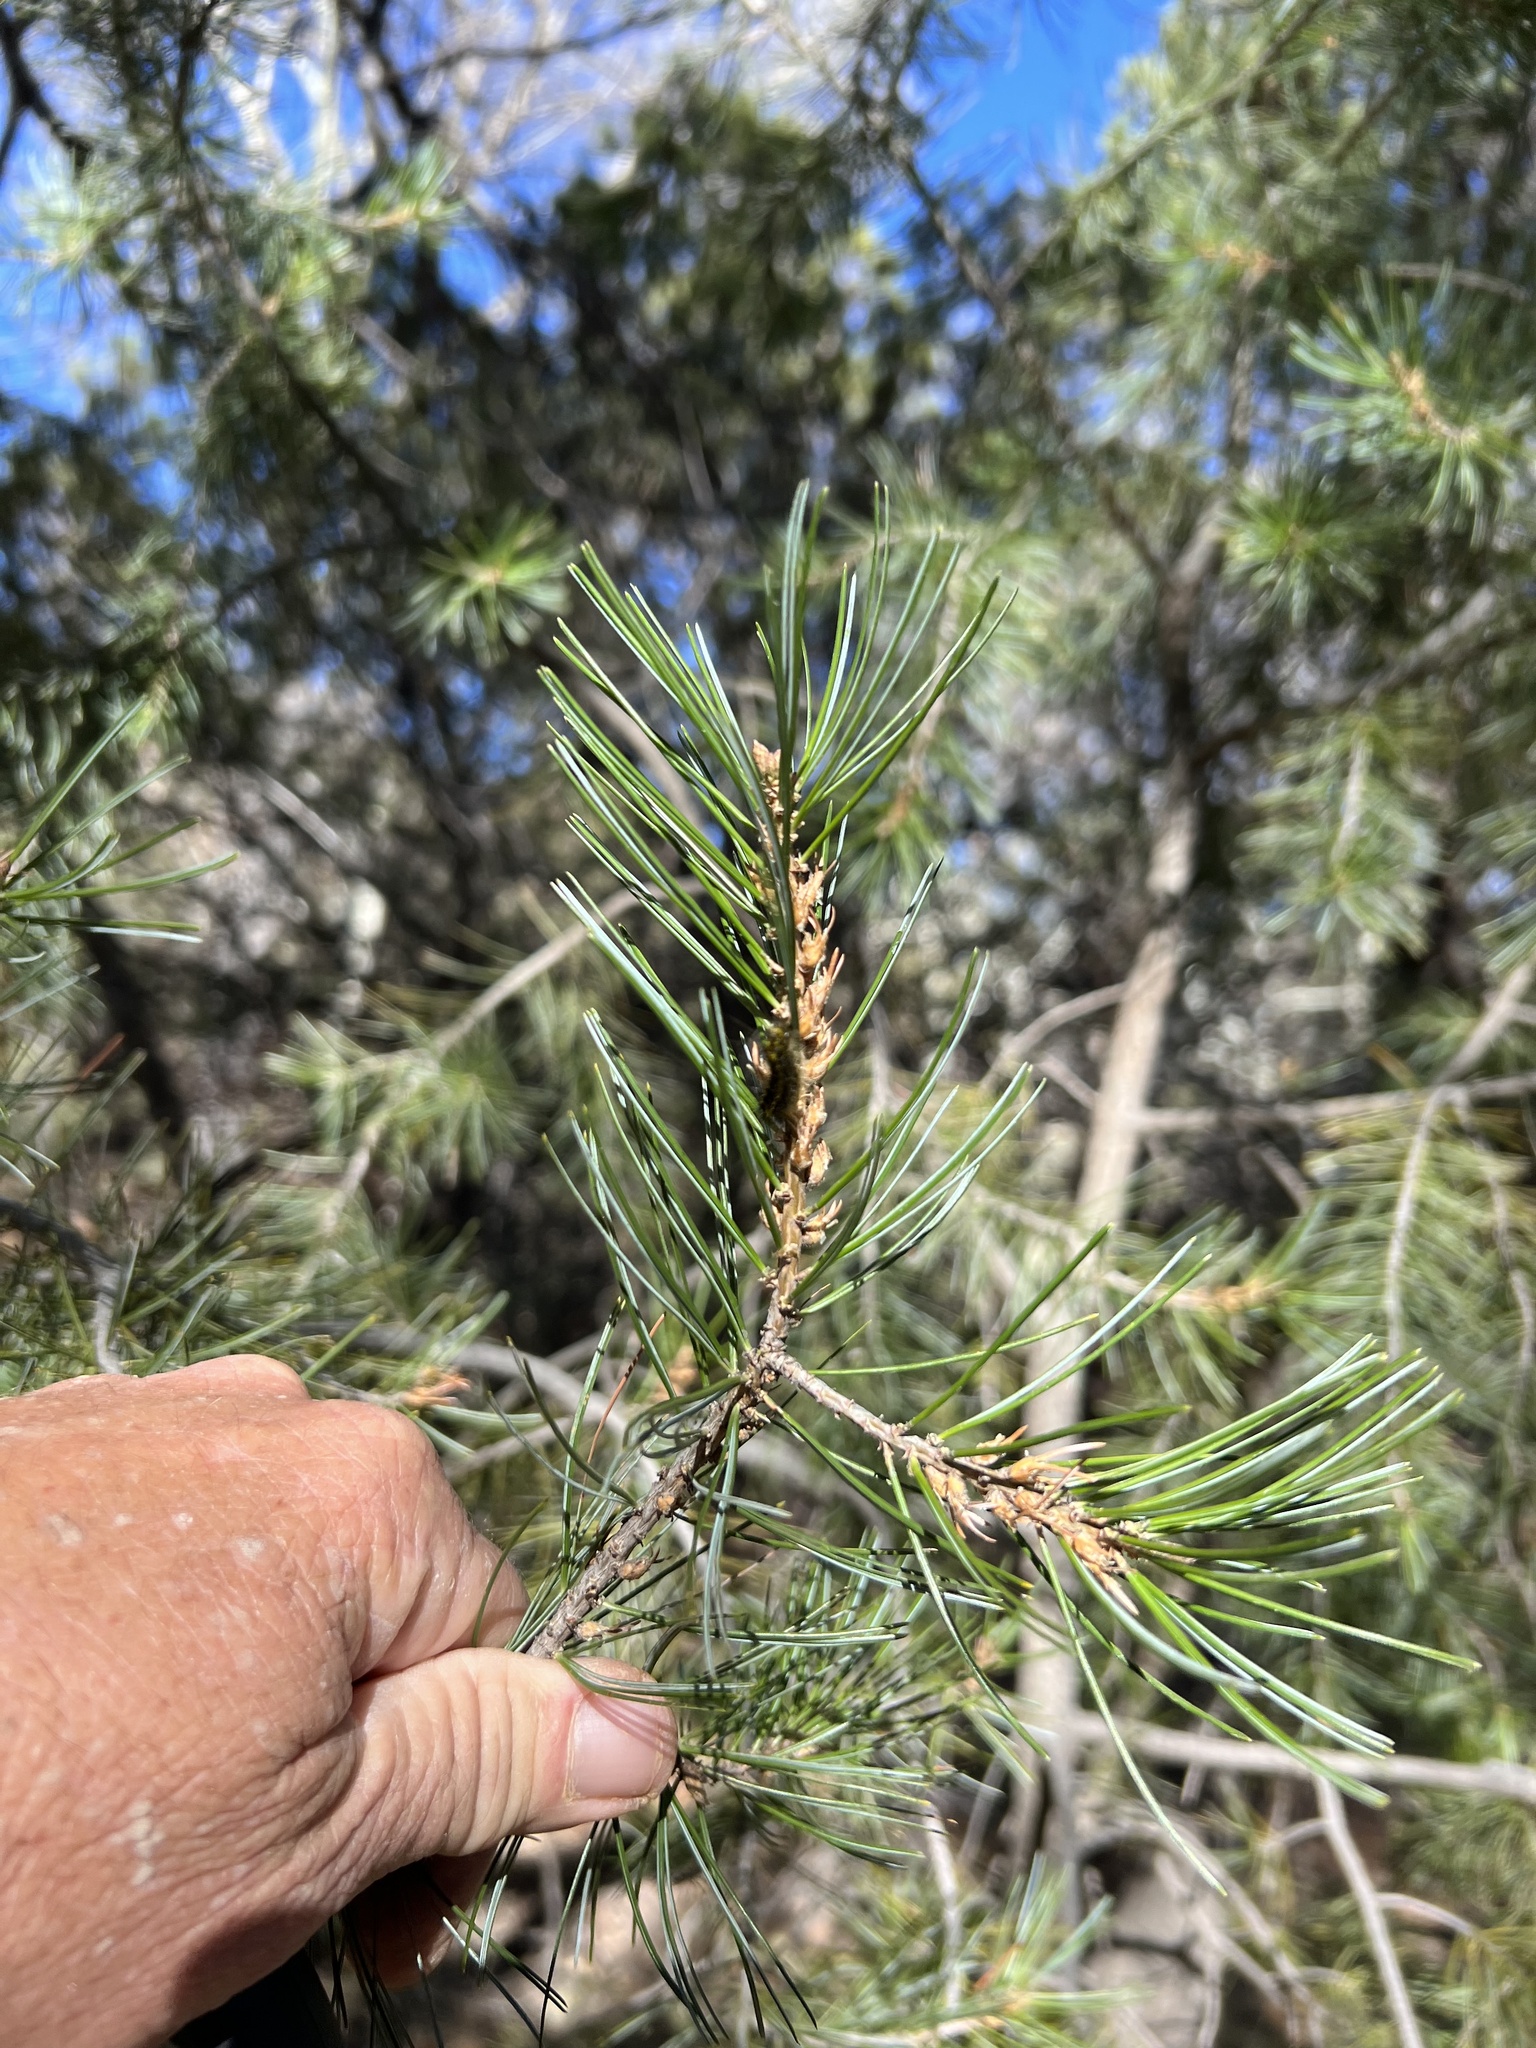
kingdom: Plantae
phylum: Tracheophyta
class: Pinopsida
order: Pinales
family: Pinaceae
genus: Pinus
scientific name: Pinus discolor
